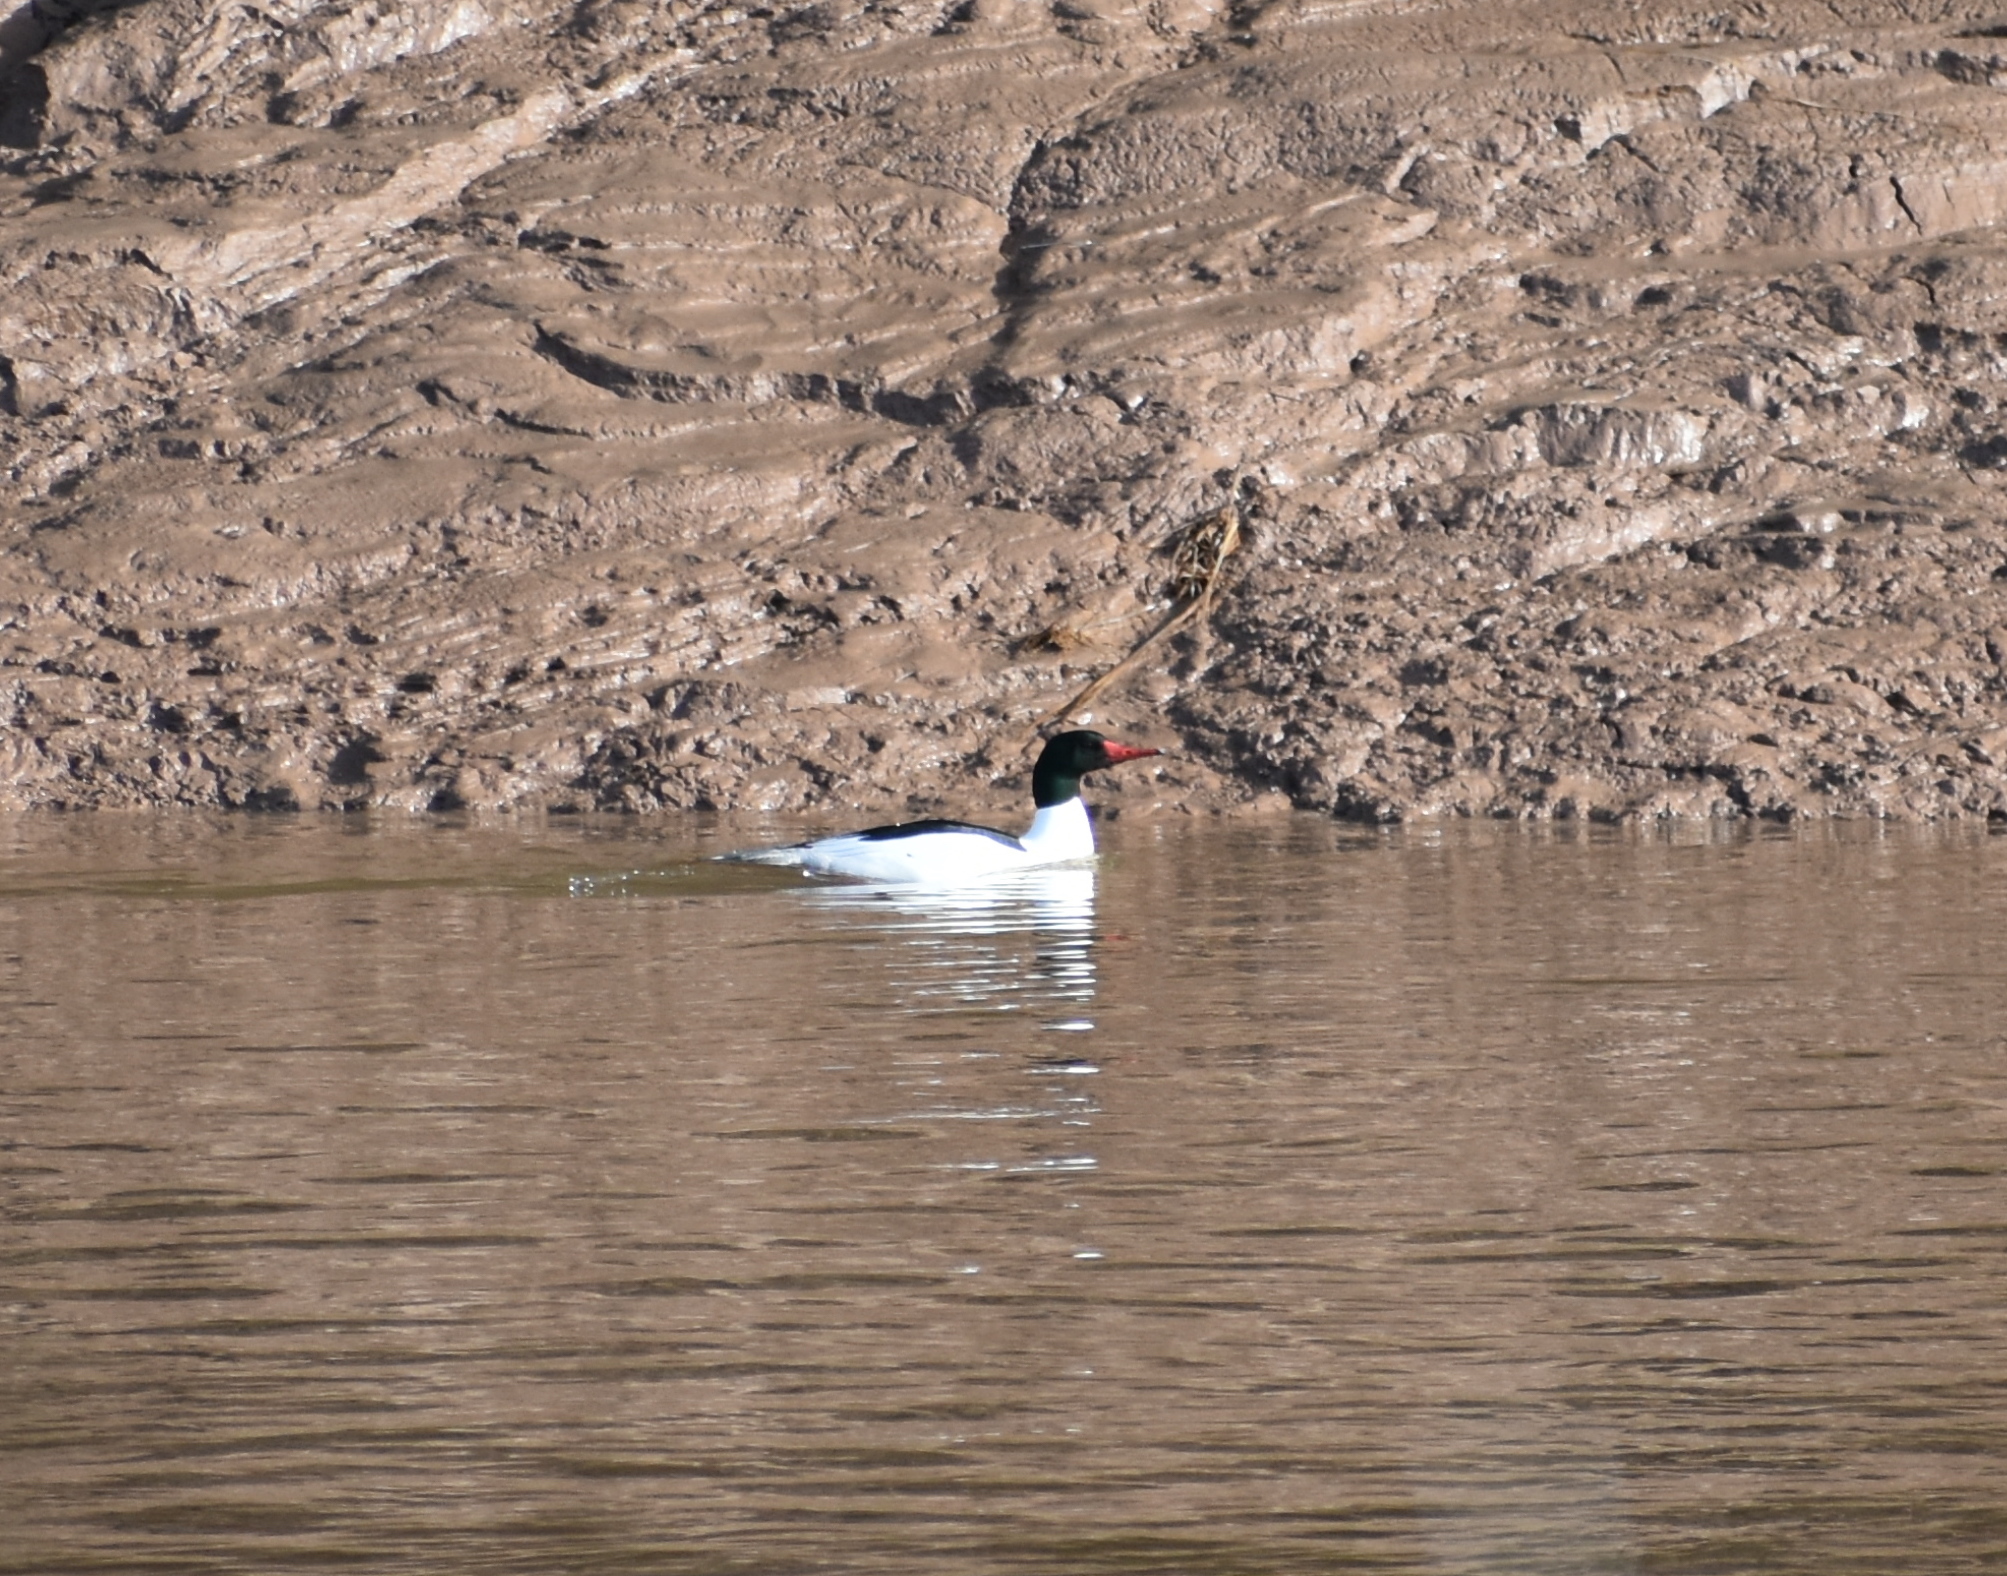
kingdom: Animalia
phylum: Chordata
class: Aves
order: Anseriformes
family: Anatidae
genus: Mergus
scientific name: Mergus merganser
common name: Common merganser
